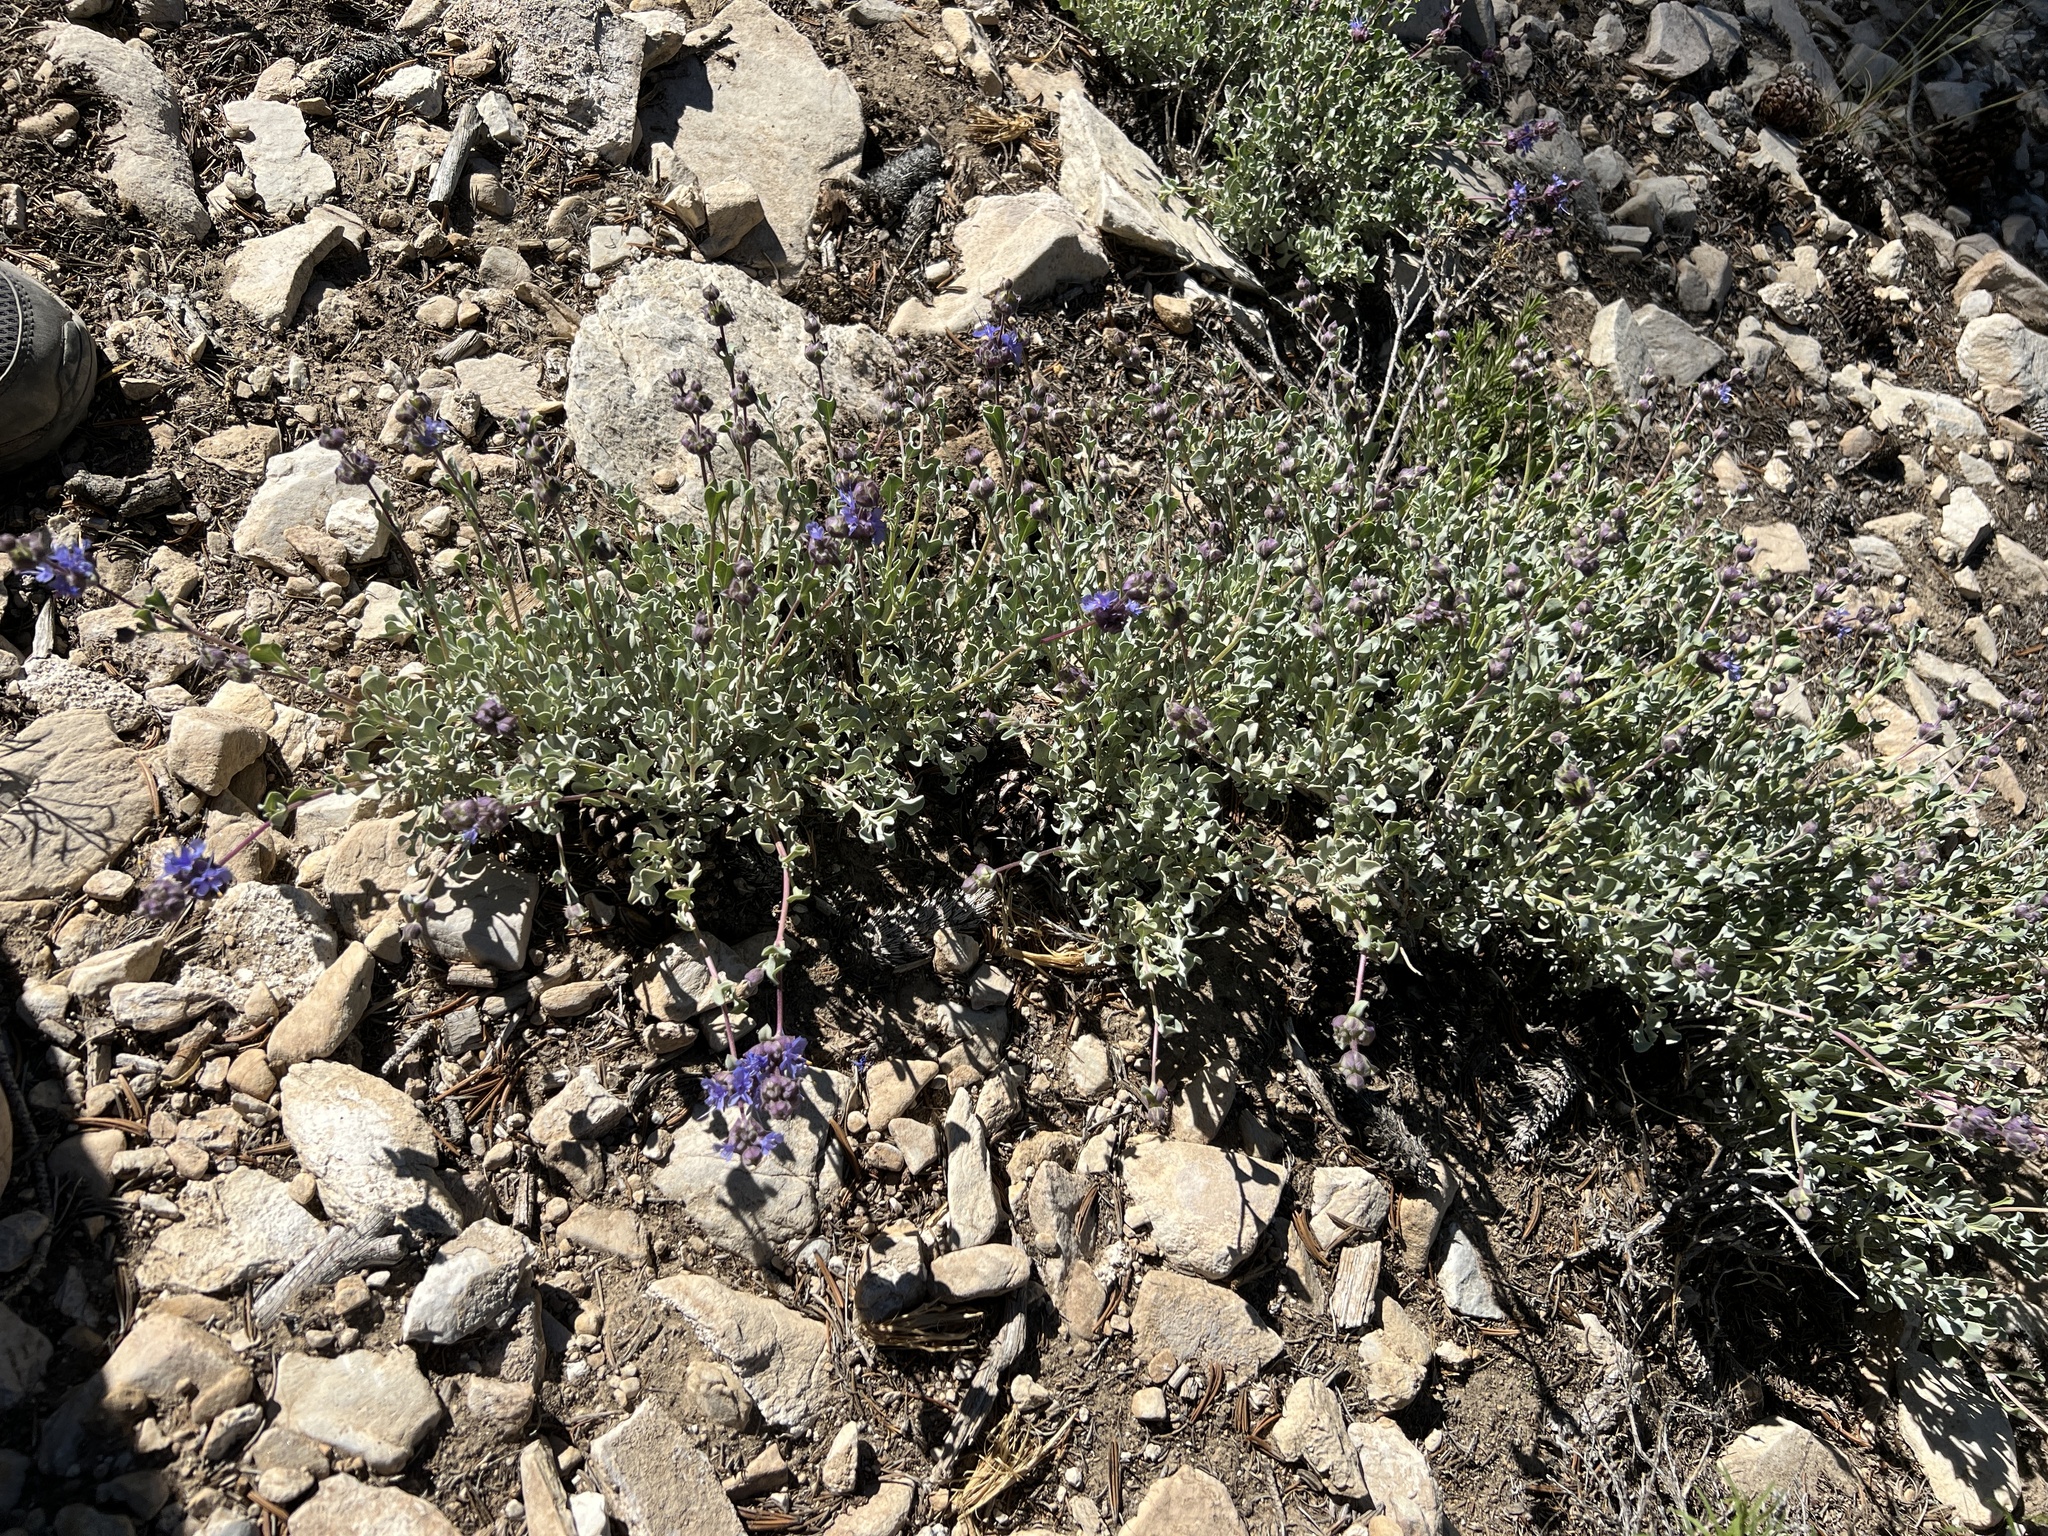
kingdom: Plantae
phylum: Tracheophyta
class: Magnoliopsida
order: Lamiales
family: Lamiaceae
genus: Salvia
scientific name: Salvia dorrii
